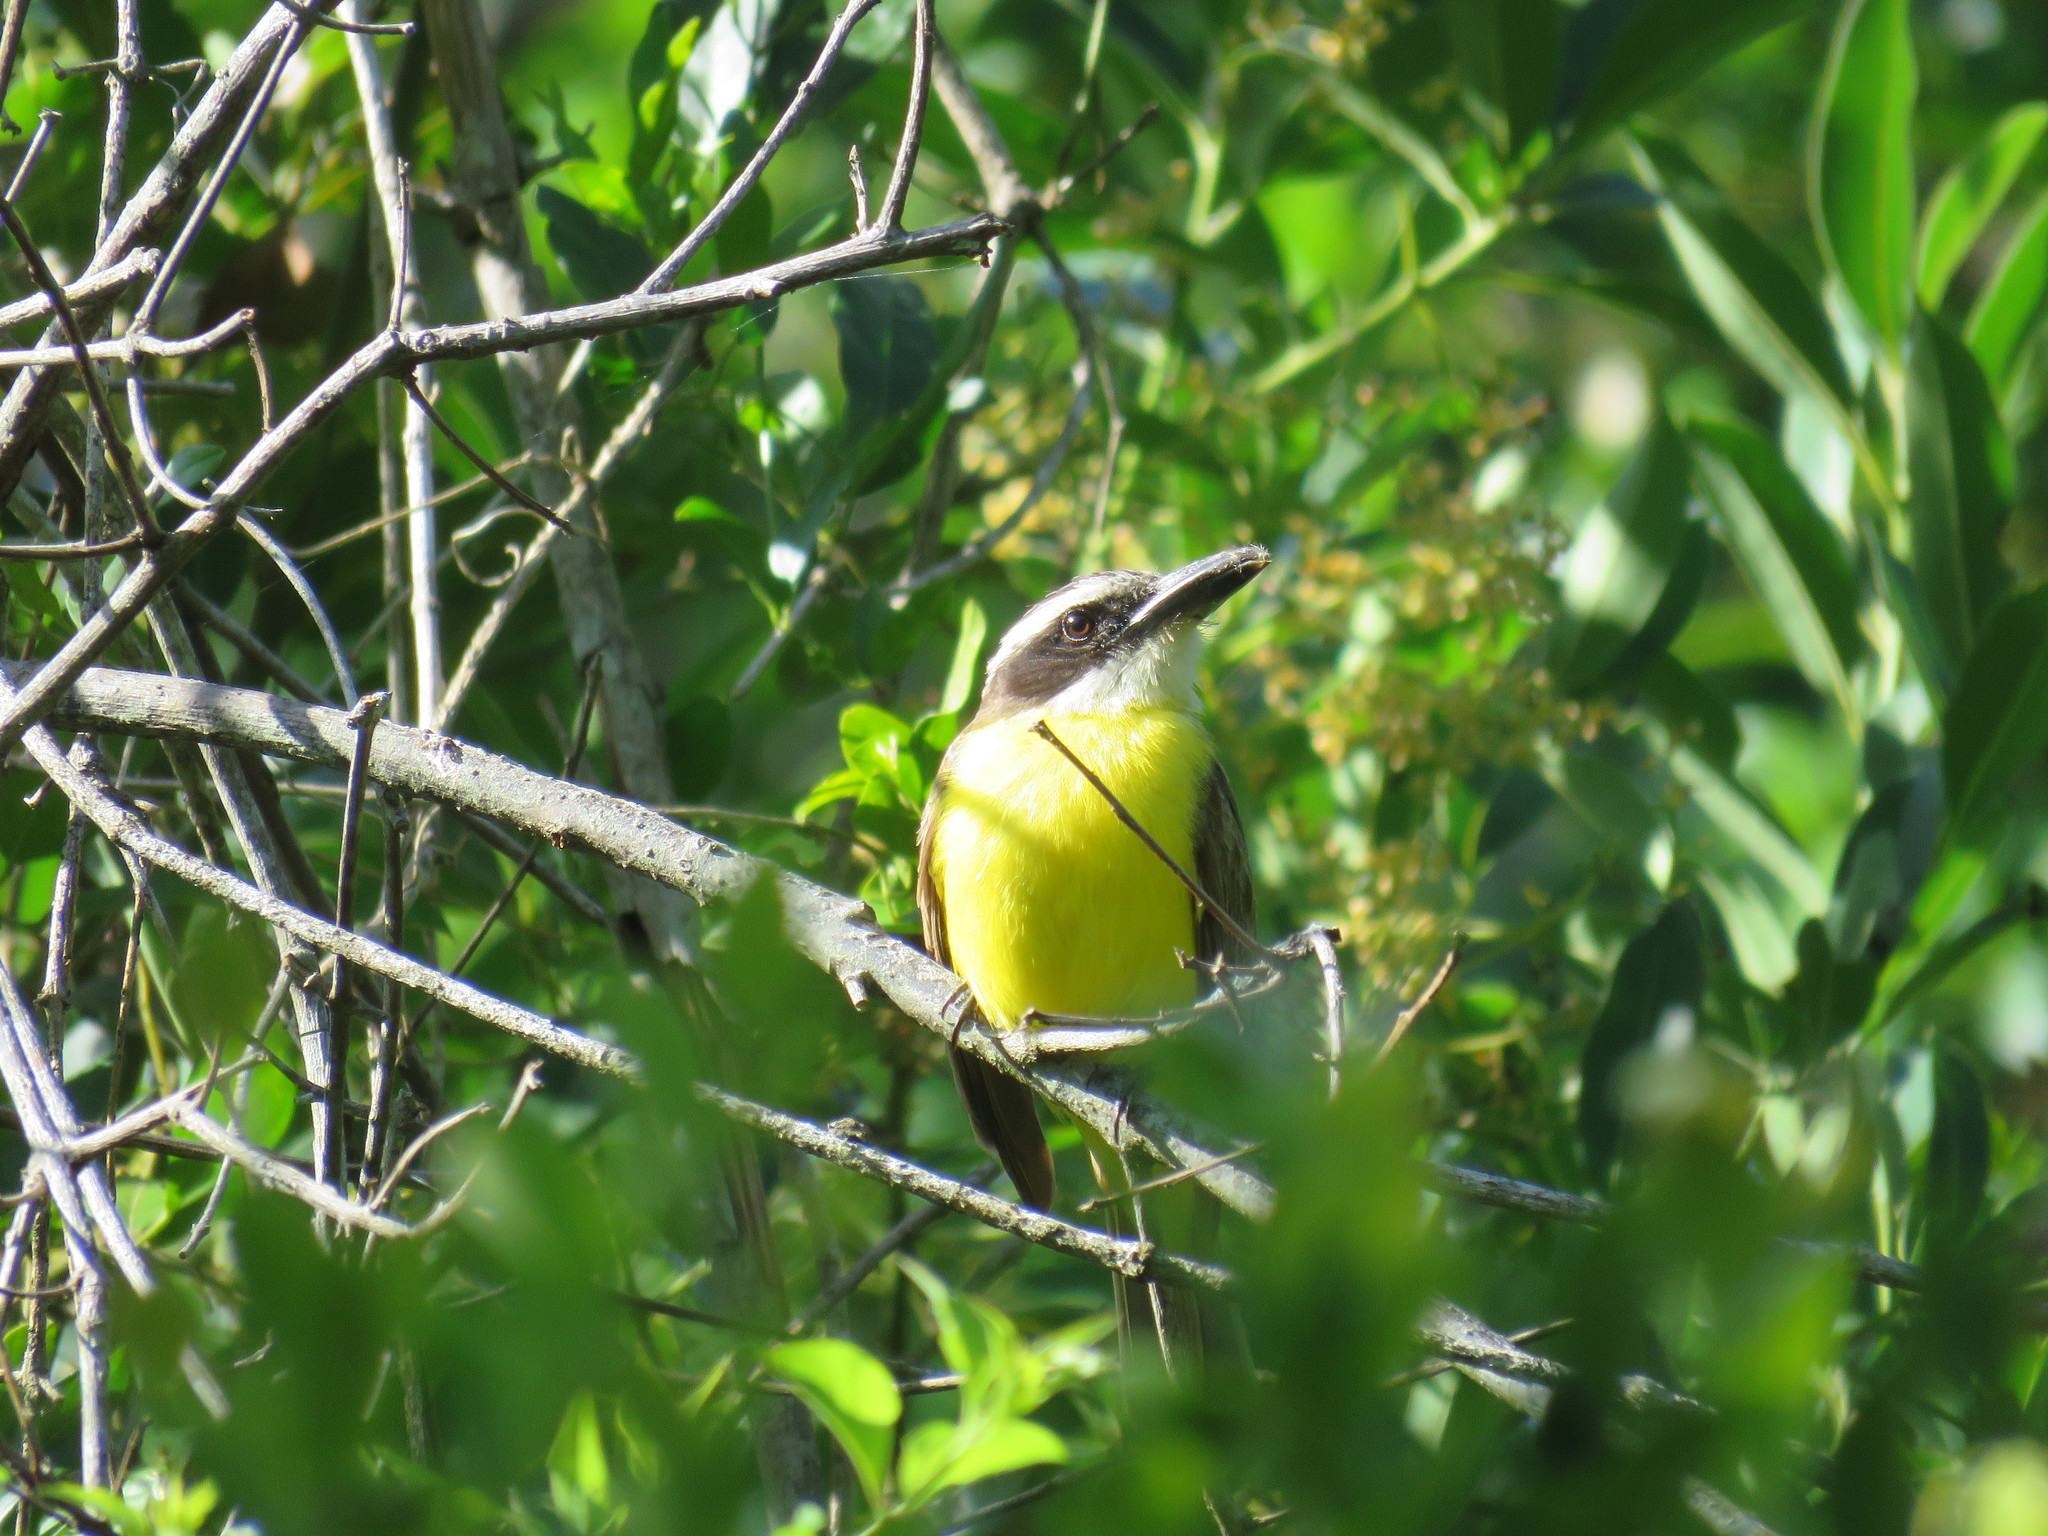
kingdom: Animalia
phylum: Chordata
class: Aves
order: Passeriformes
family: Tyrannidae
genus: Megarynchus
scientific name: Megarynchus pitangua
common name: Boat-billed flycatcher
